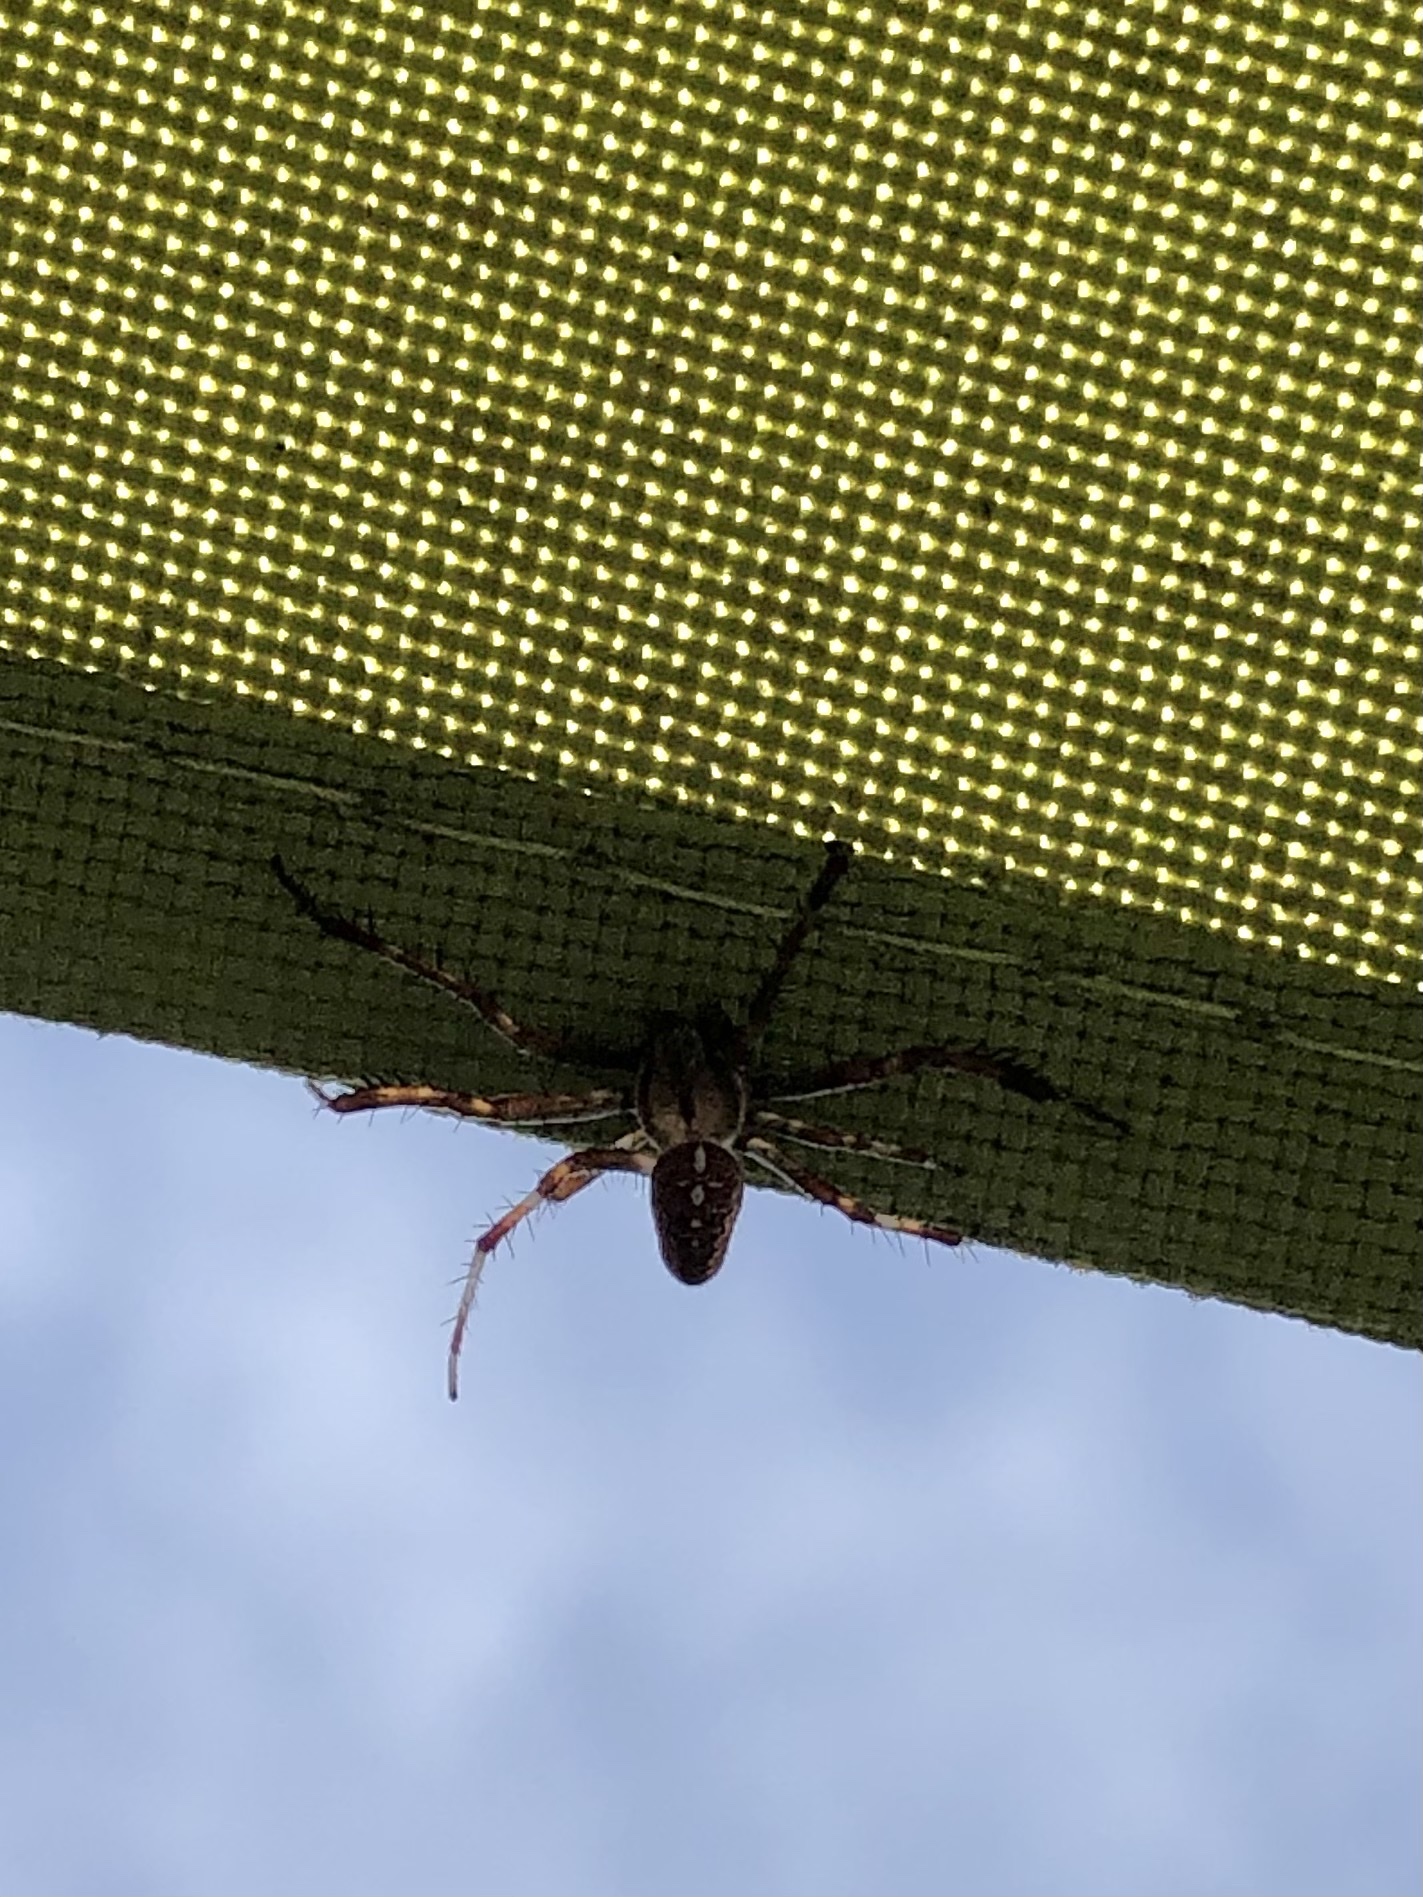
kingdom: Animalia
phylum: Arthropoda
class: Arachnida
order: Araneae
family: Araneidae
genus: Araneus
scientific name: Araneus diadematus
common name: Cross orbweaver
